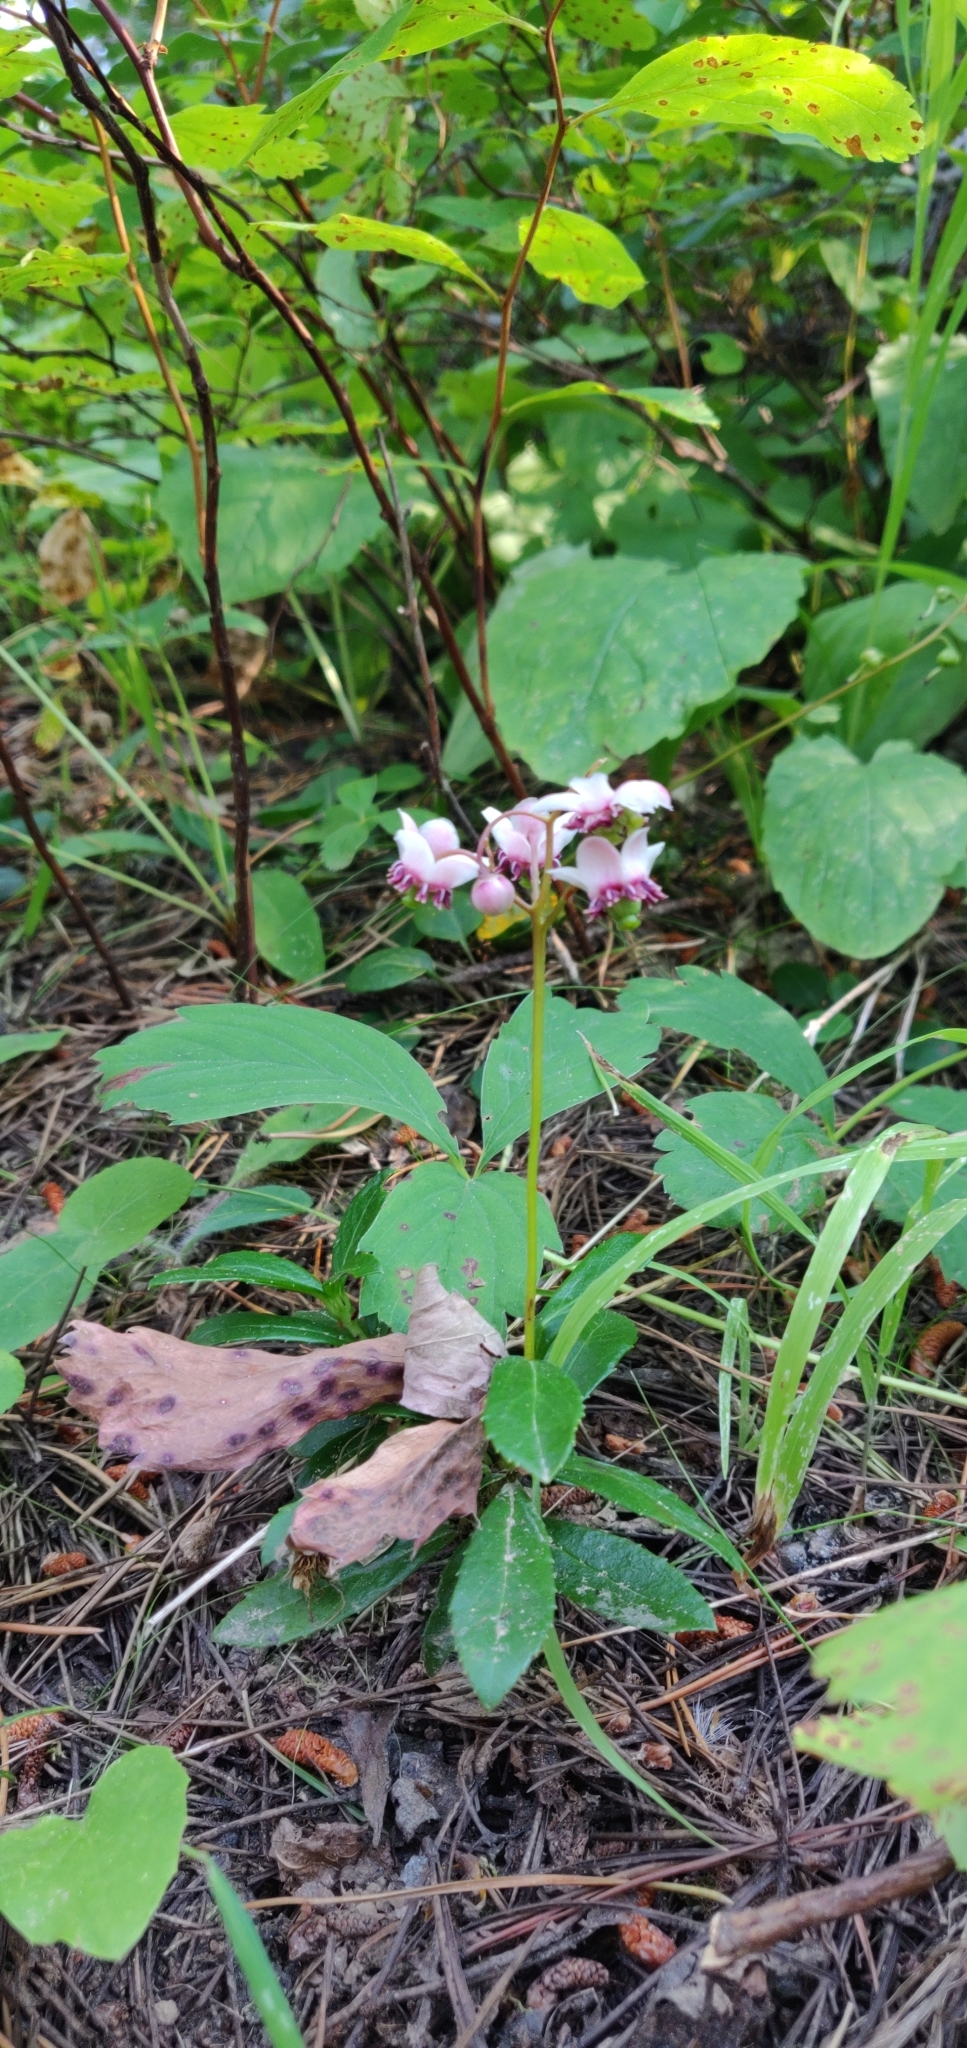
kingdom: Plantae
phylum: Tracheophyta
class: Magnoliopsida
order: Ericales
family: Ericaceae
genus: Chimaphila
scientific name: Chimaphila umbellata
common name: Pipsissewa
